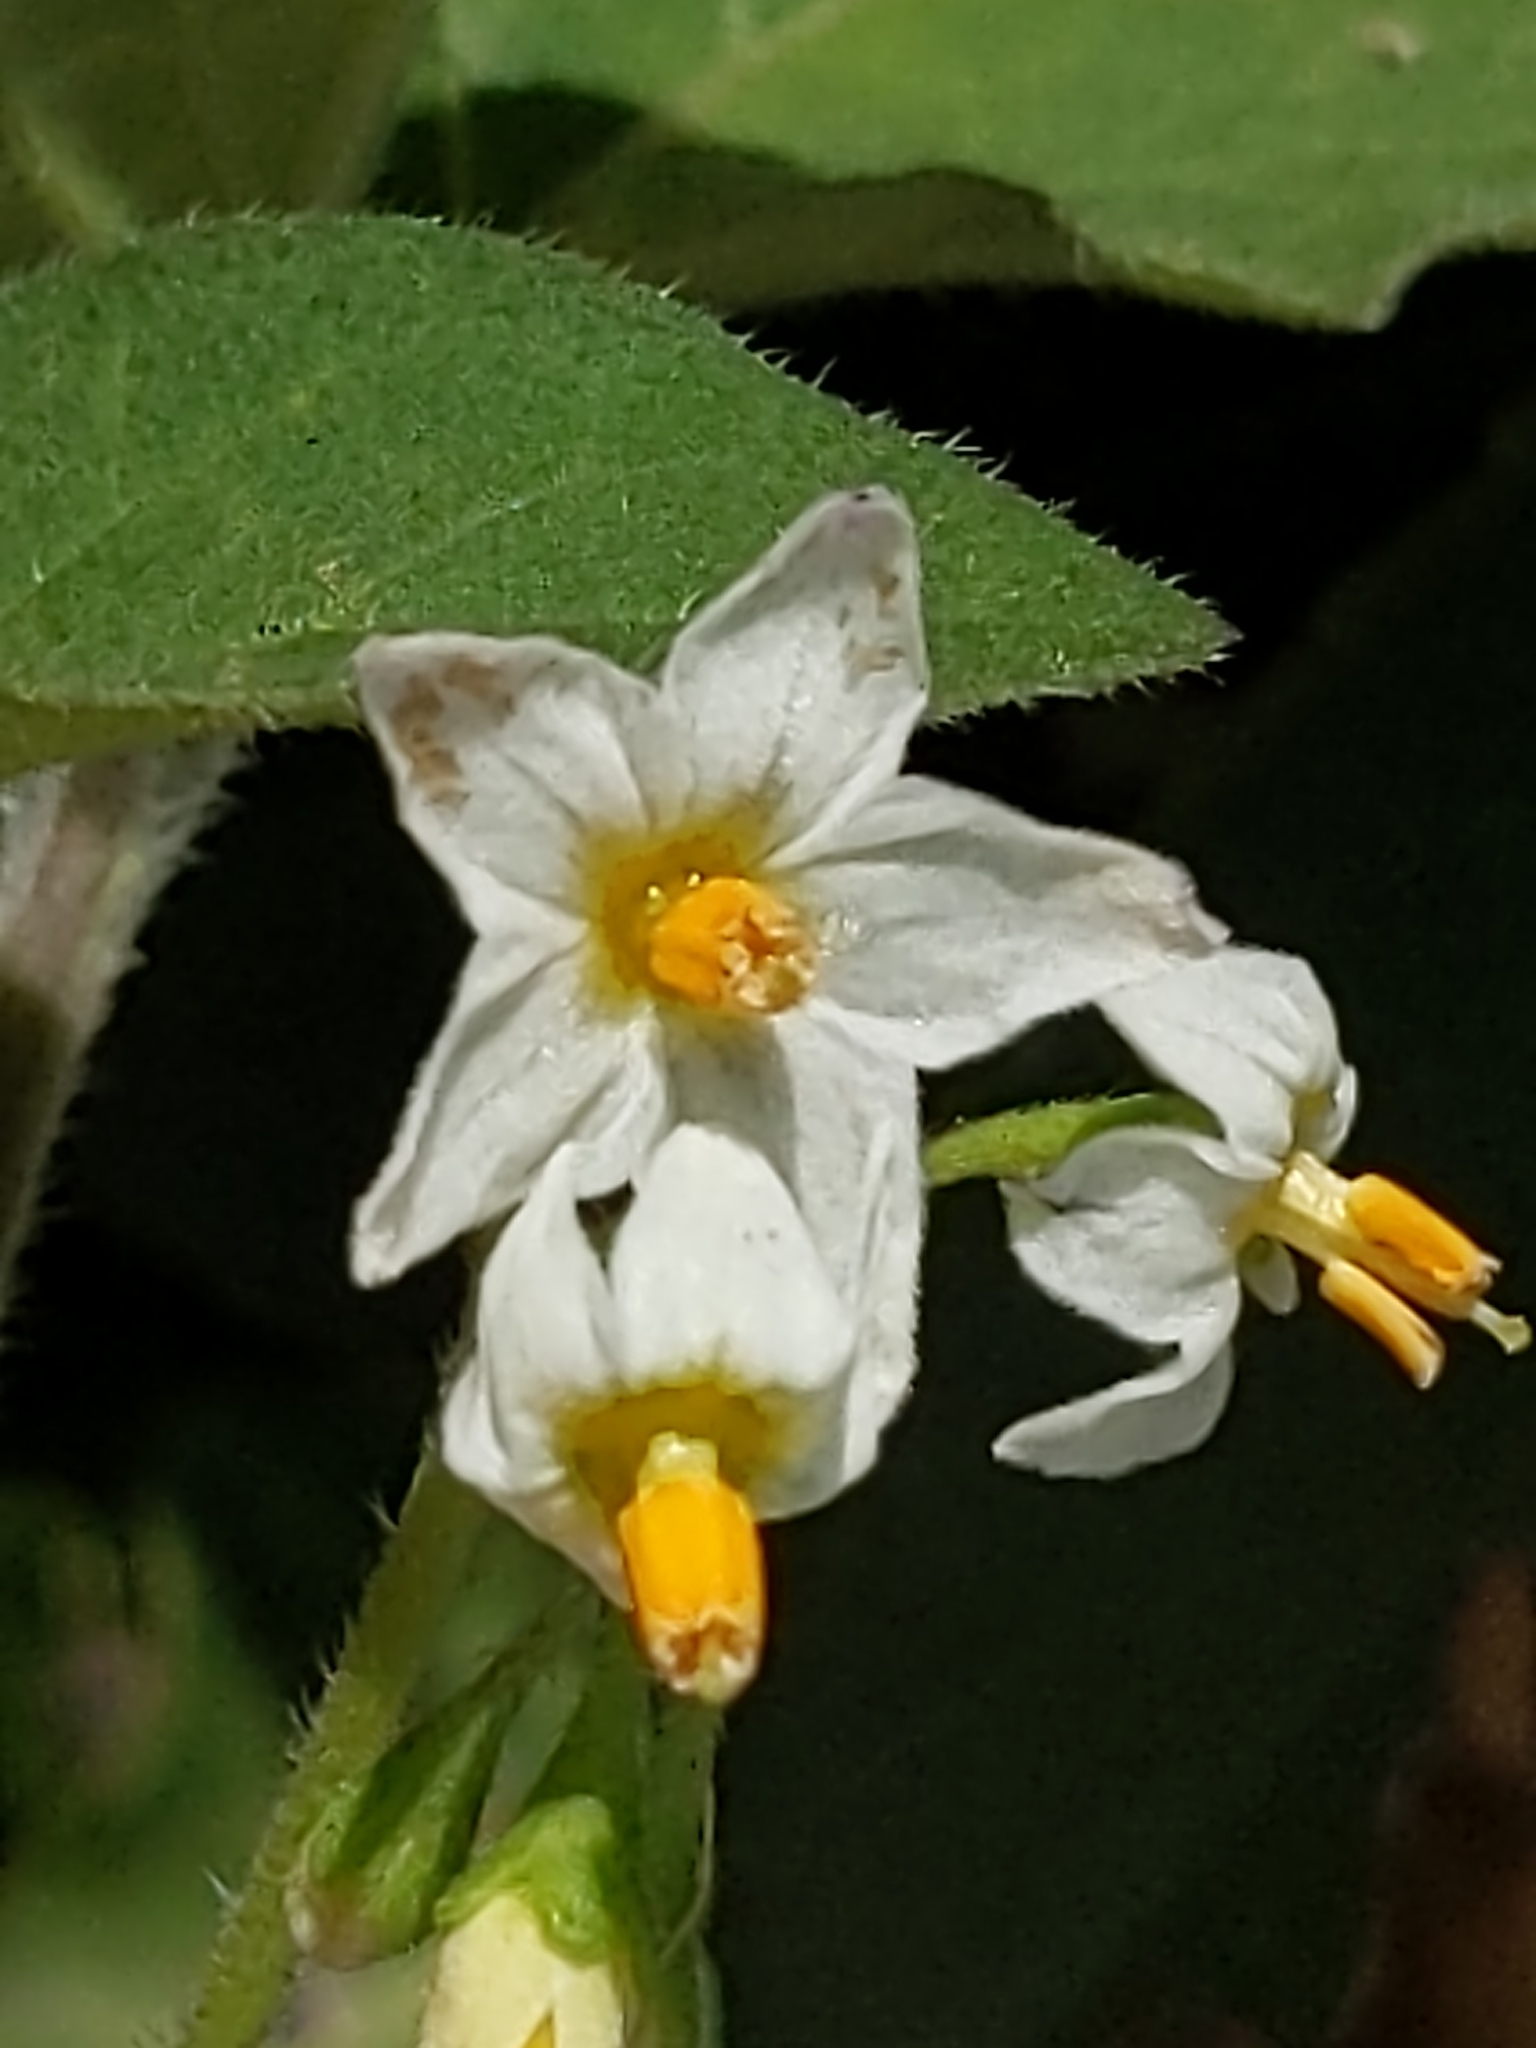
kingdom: Plantae
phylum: Tracheophyta
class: Magnoliopsida
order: Solanales
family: Solanaceae
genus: Solanum
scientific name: Solanum nigrum
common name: Black nightshade
